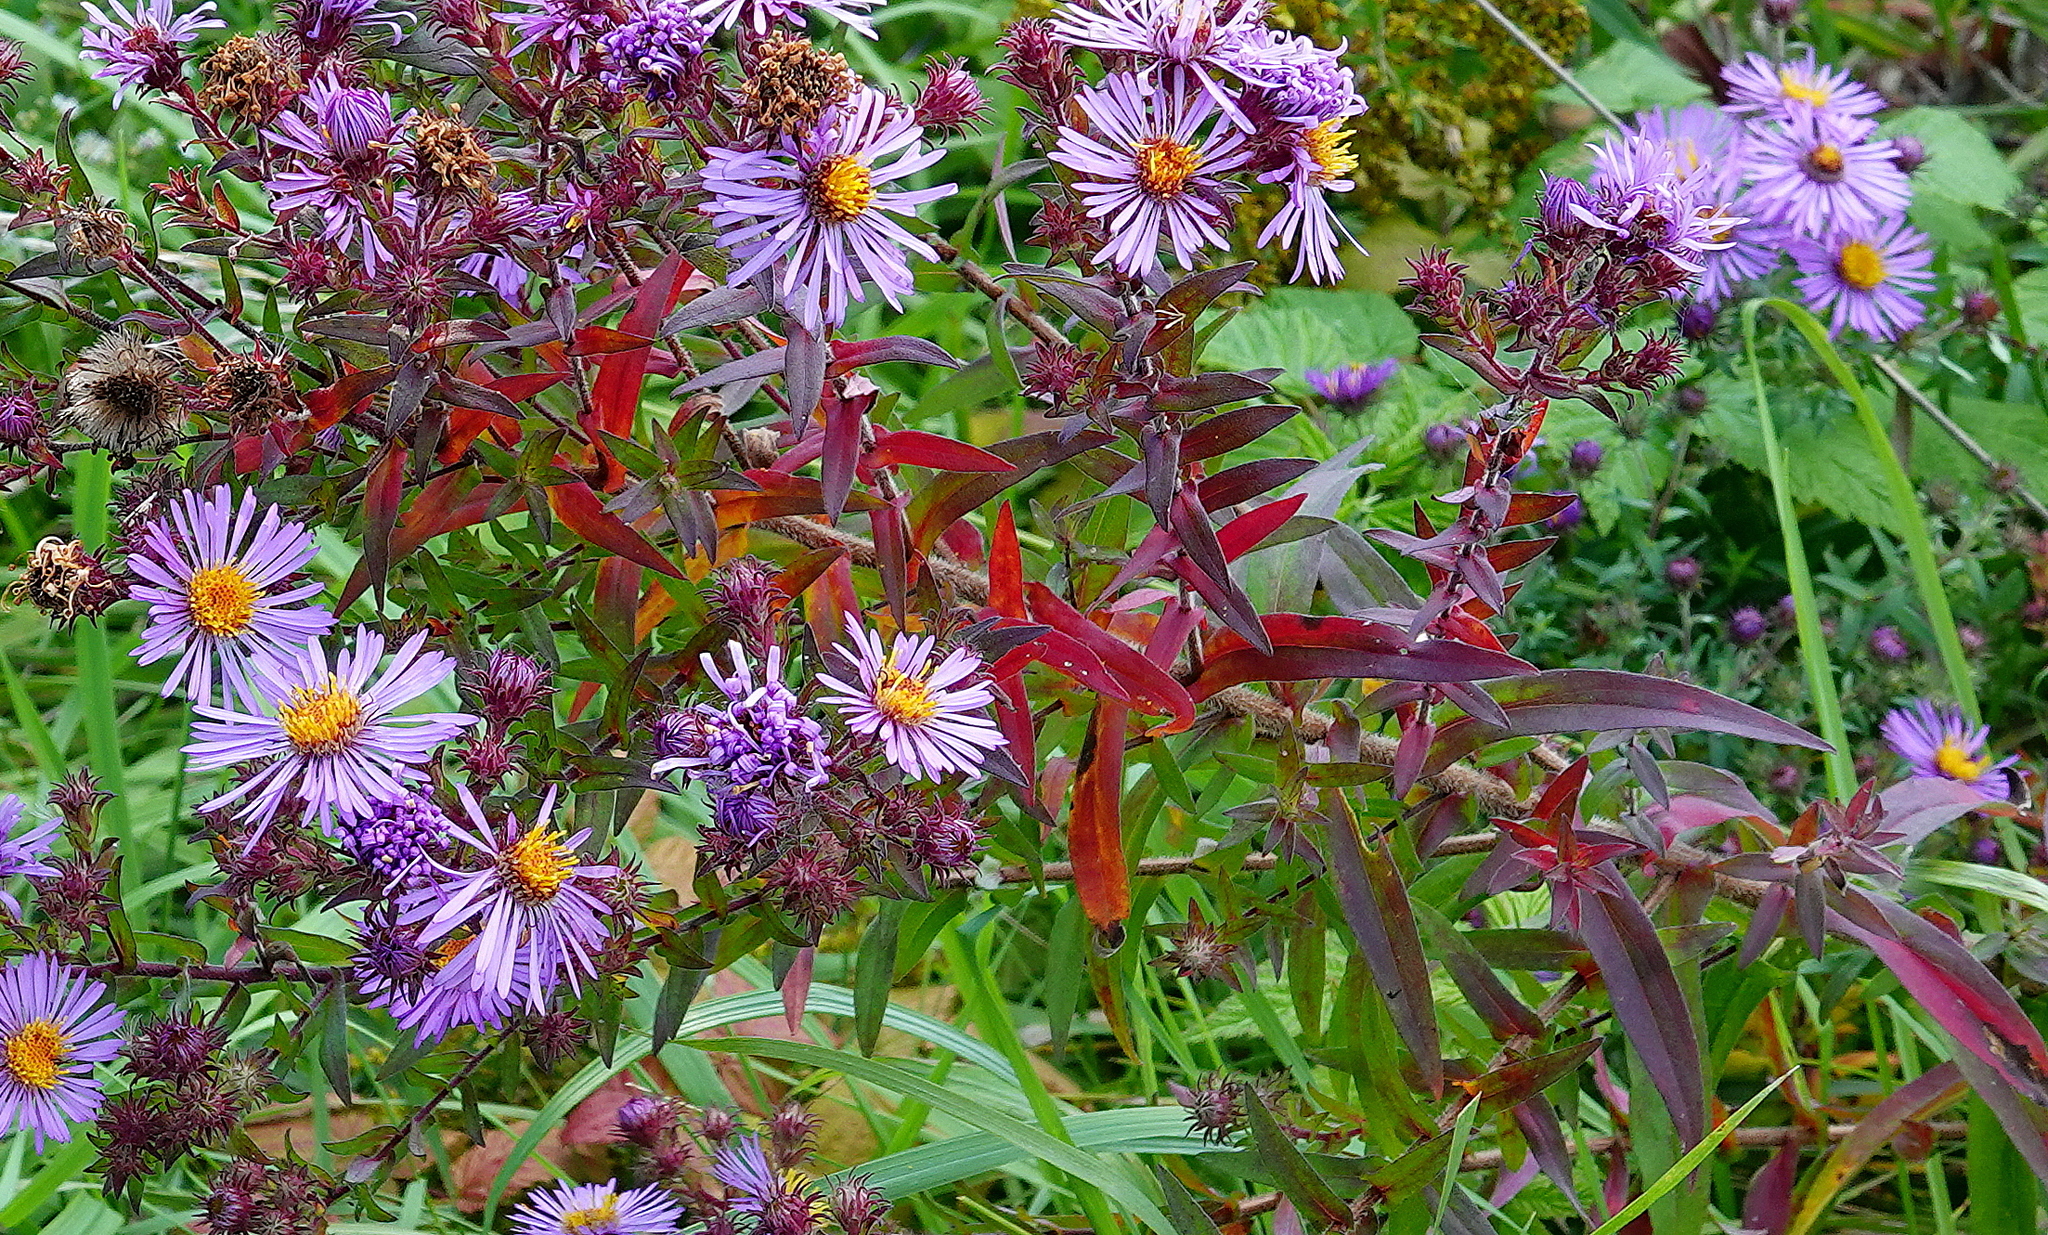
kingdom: Plantae
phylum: Tracheophyta
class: Magnoliopsida
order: Asterales
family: Asteraceae
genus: Symphyotrichum
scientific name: Symphyotrichum novae-angliae
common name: Michaelmas daisy
